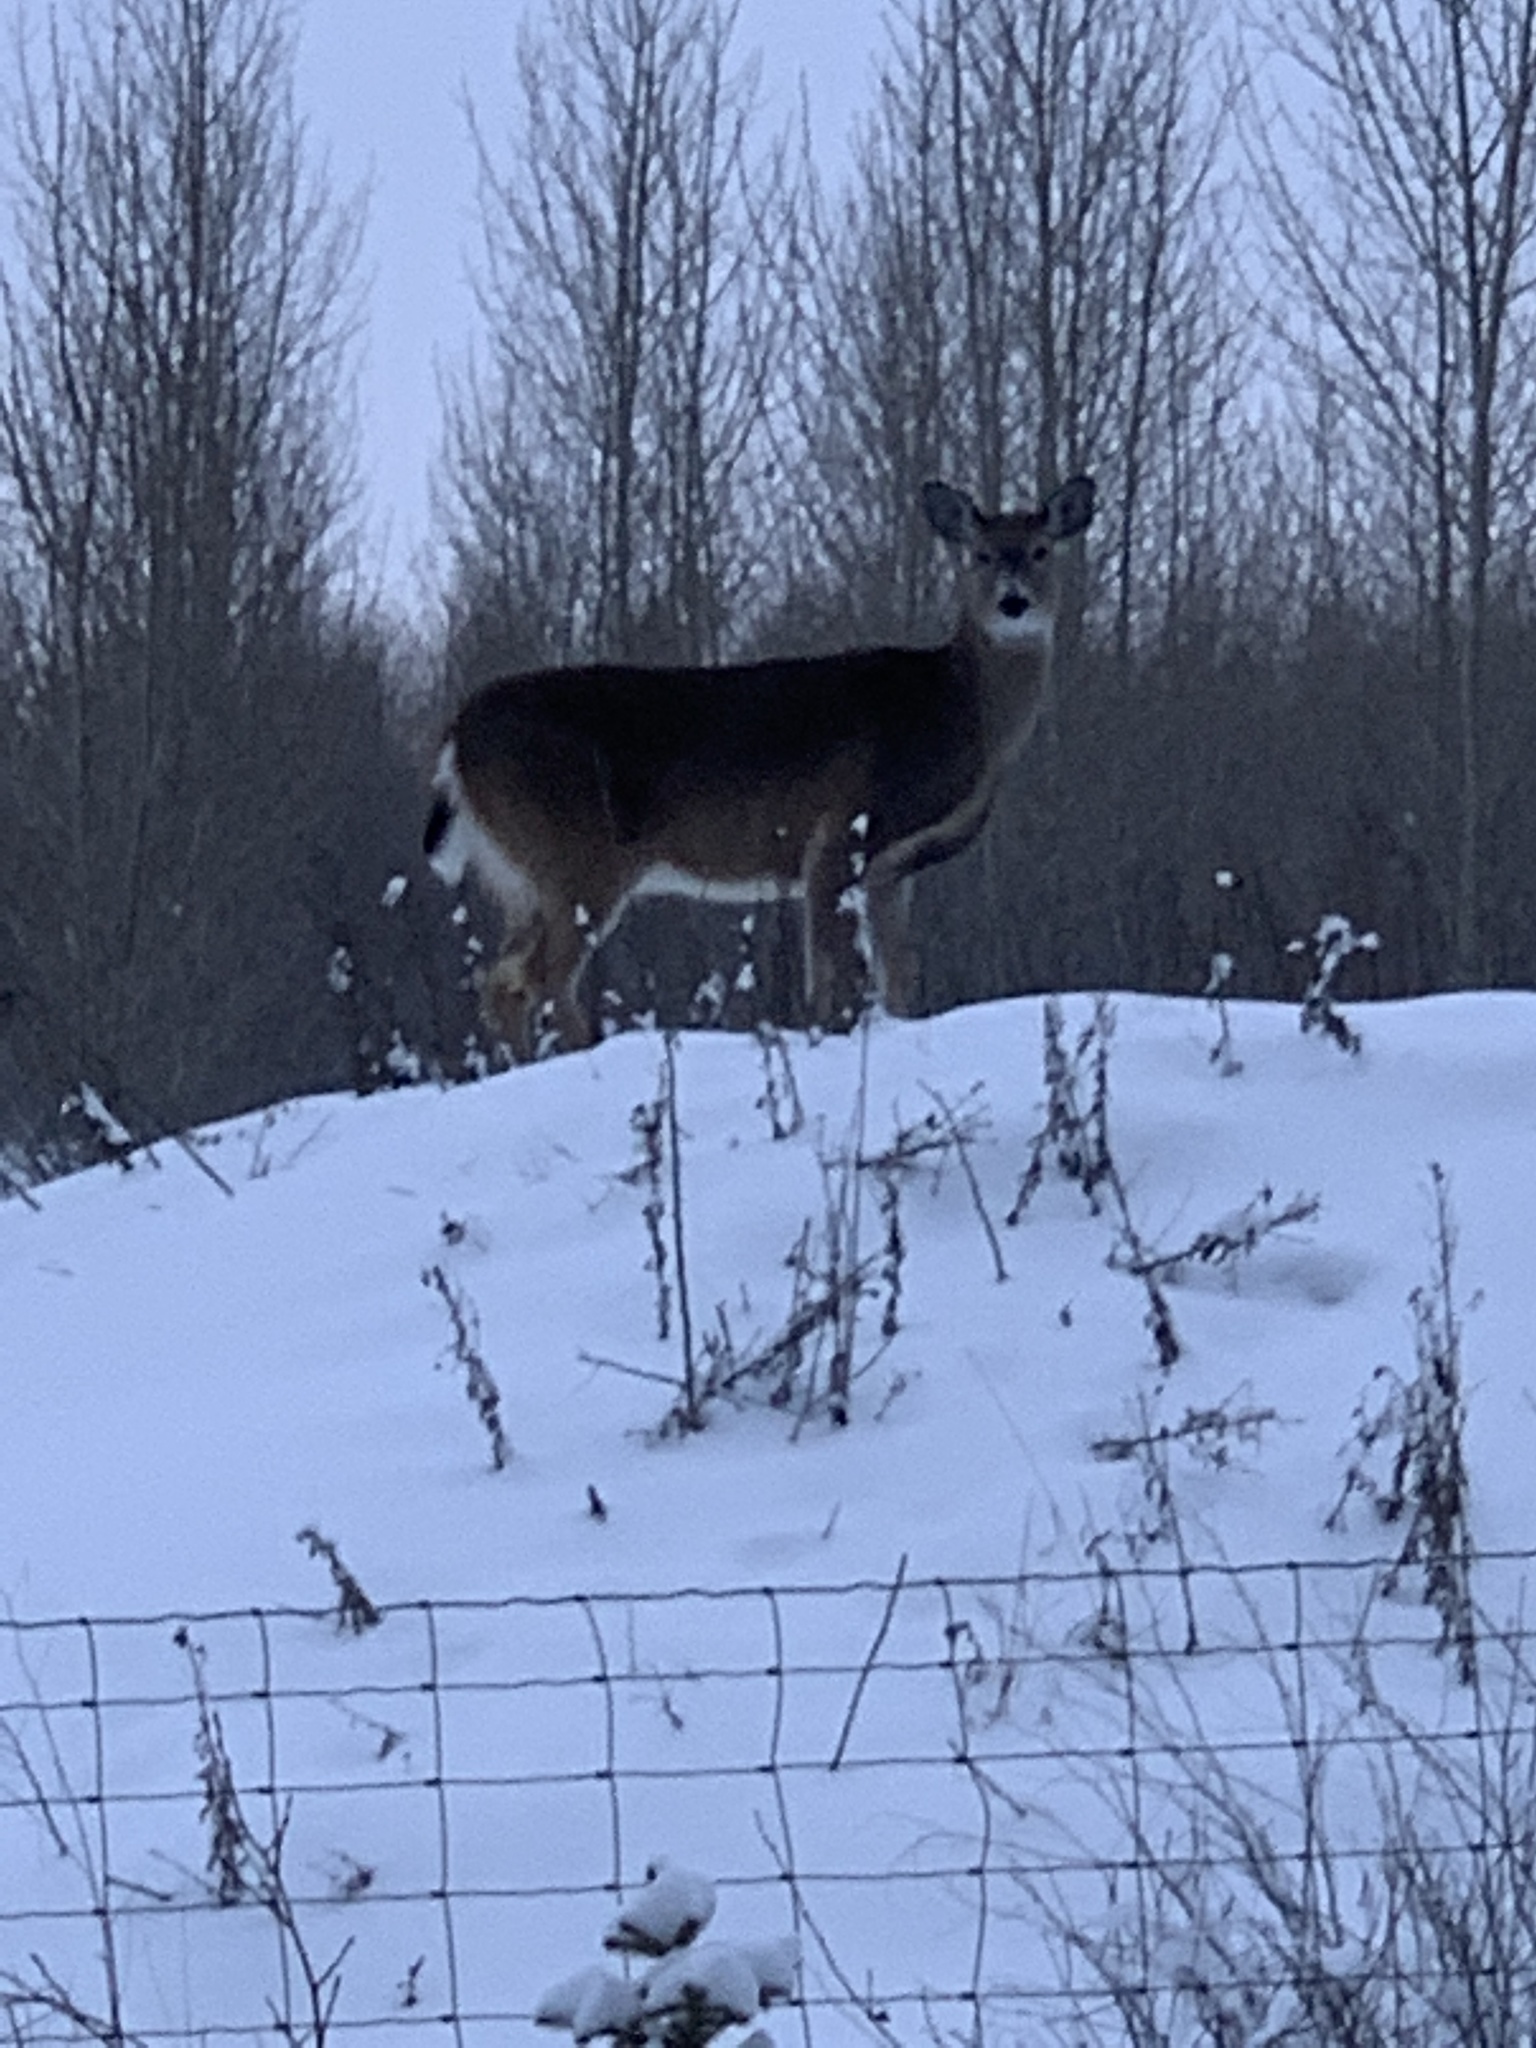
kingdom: Animalia
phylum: Chordata
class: Mammalia
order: Artiodactyla
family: Cervidae
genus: Odocoileus
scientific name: Odocoileus virginianus
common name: White-tailed deer
